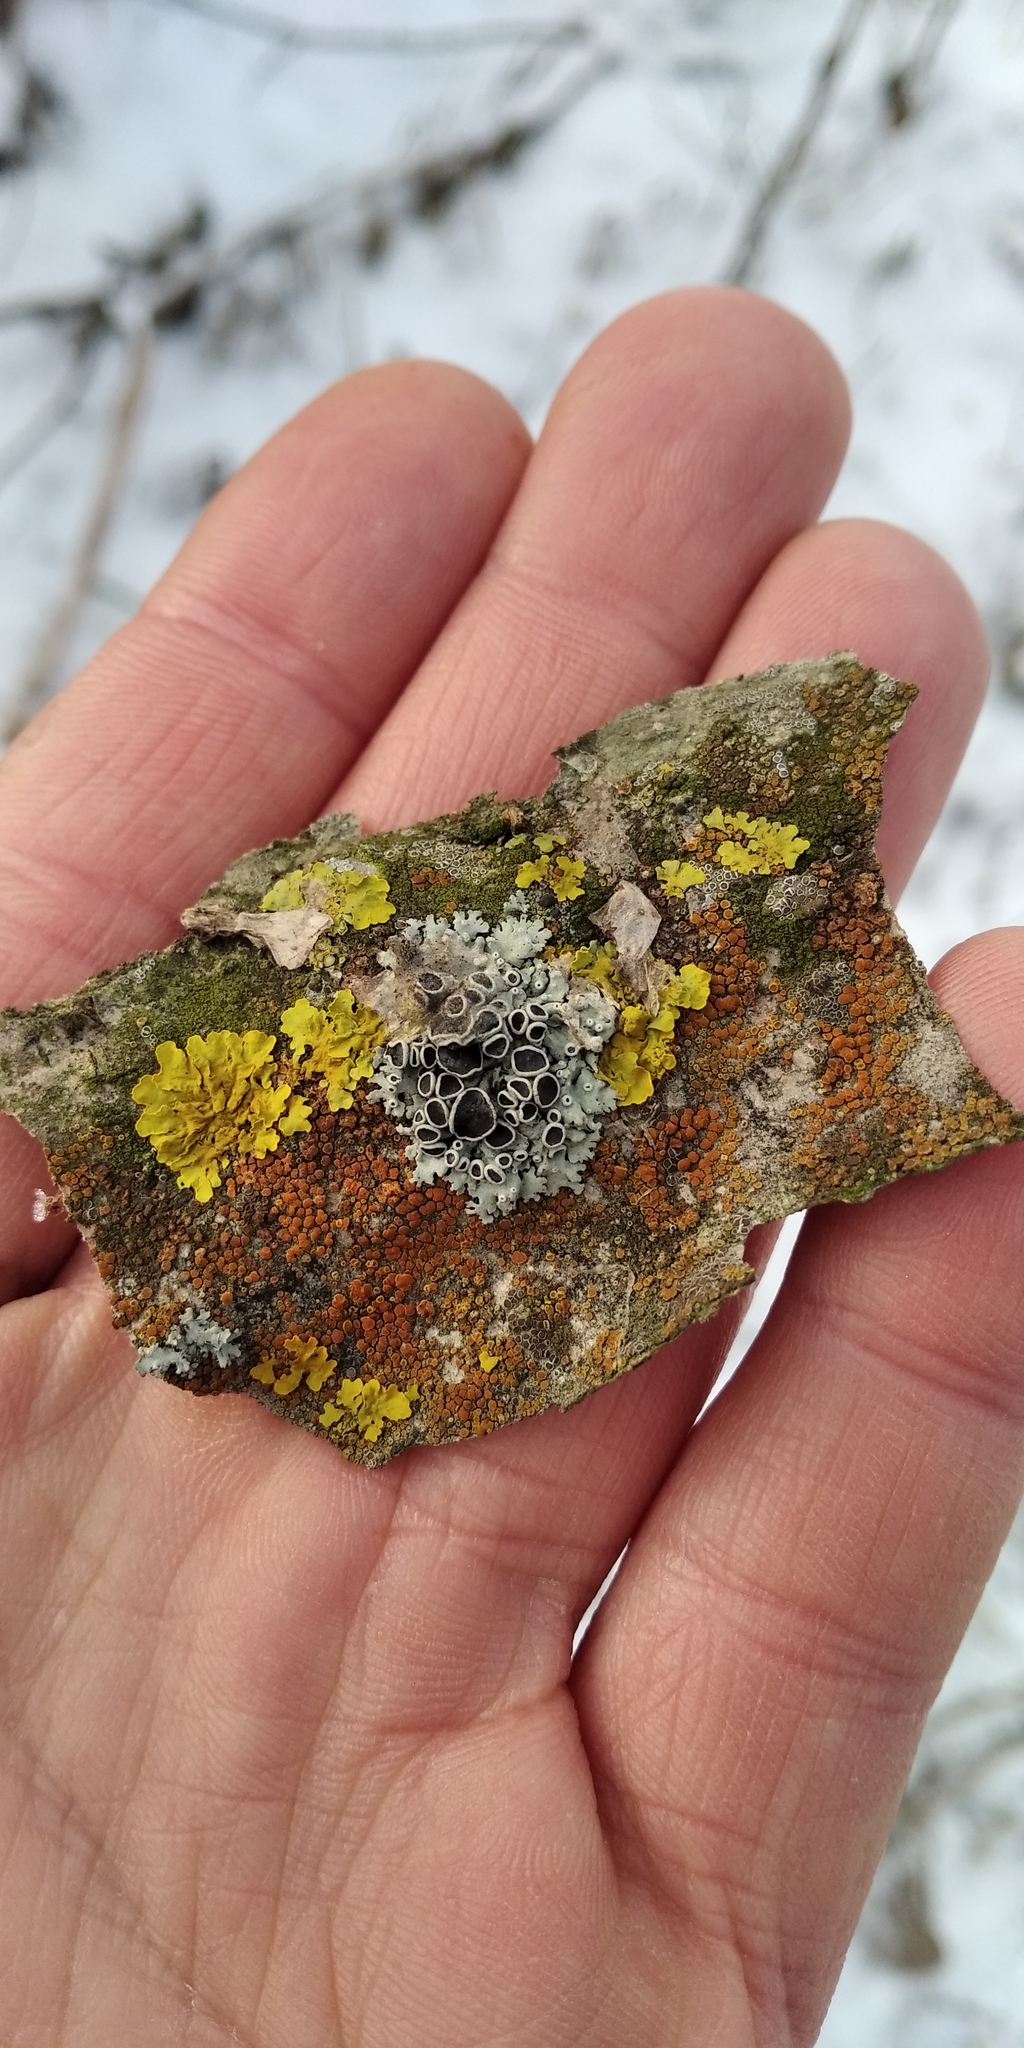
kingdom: Fungi
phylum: Ascomycota
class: Lecanoromycetes
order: Caliciales
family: Physciaceae
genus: Physcia
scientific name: Physcia stellaris
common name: Star rosette lichen
